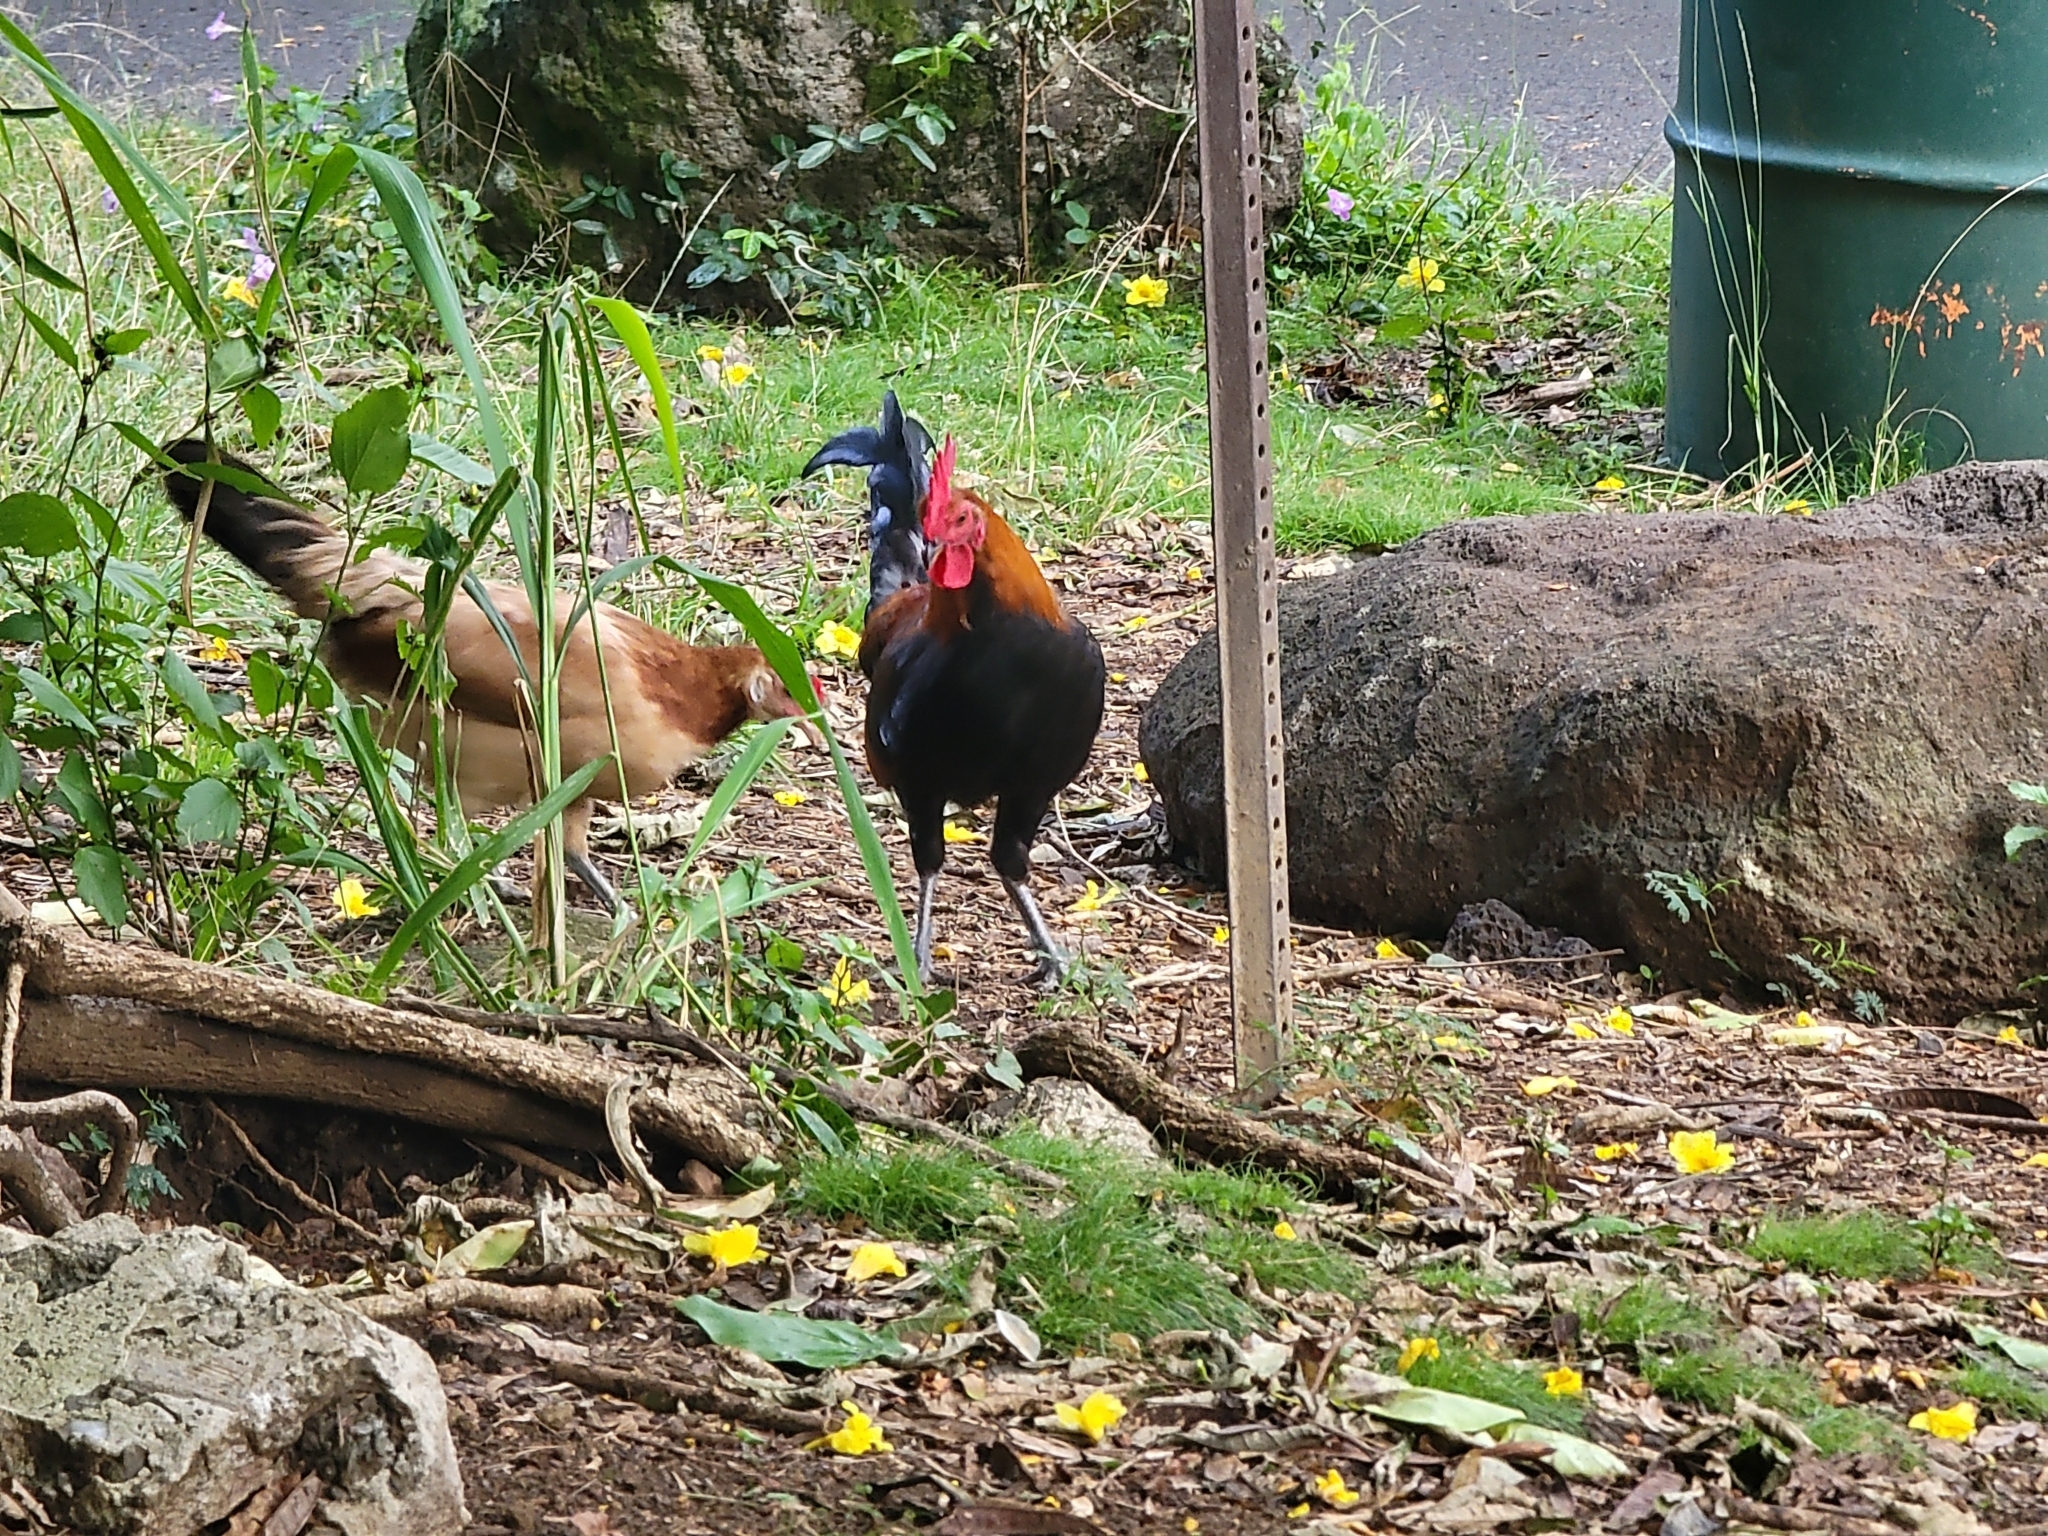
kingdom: Animalia
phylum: Chordata
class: Aves
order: Galliformes
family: Phasianidae
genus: Gallus
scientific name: Gallus gallus
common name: Red junglefowl
